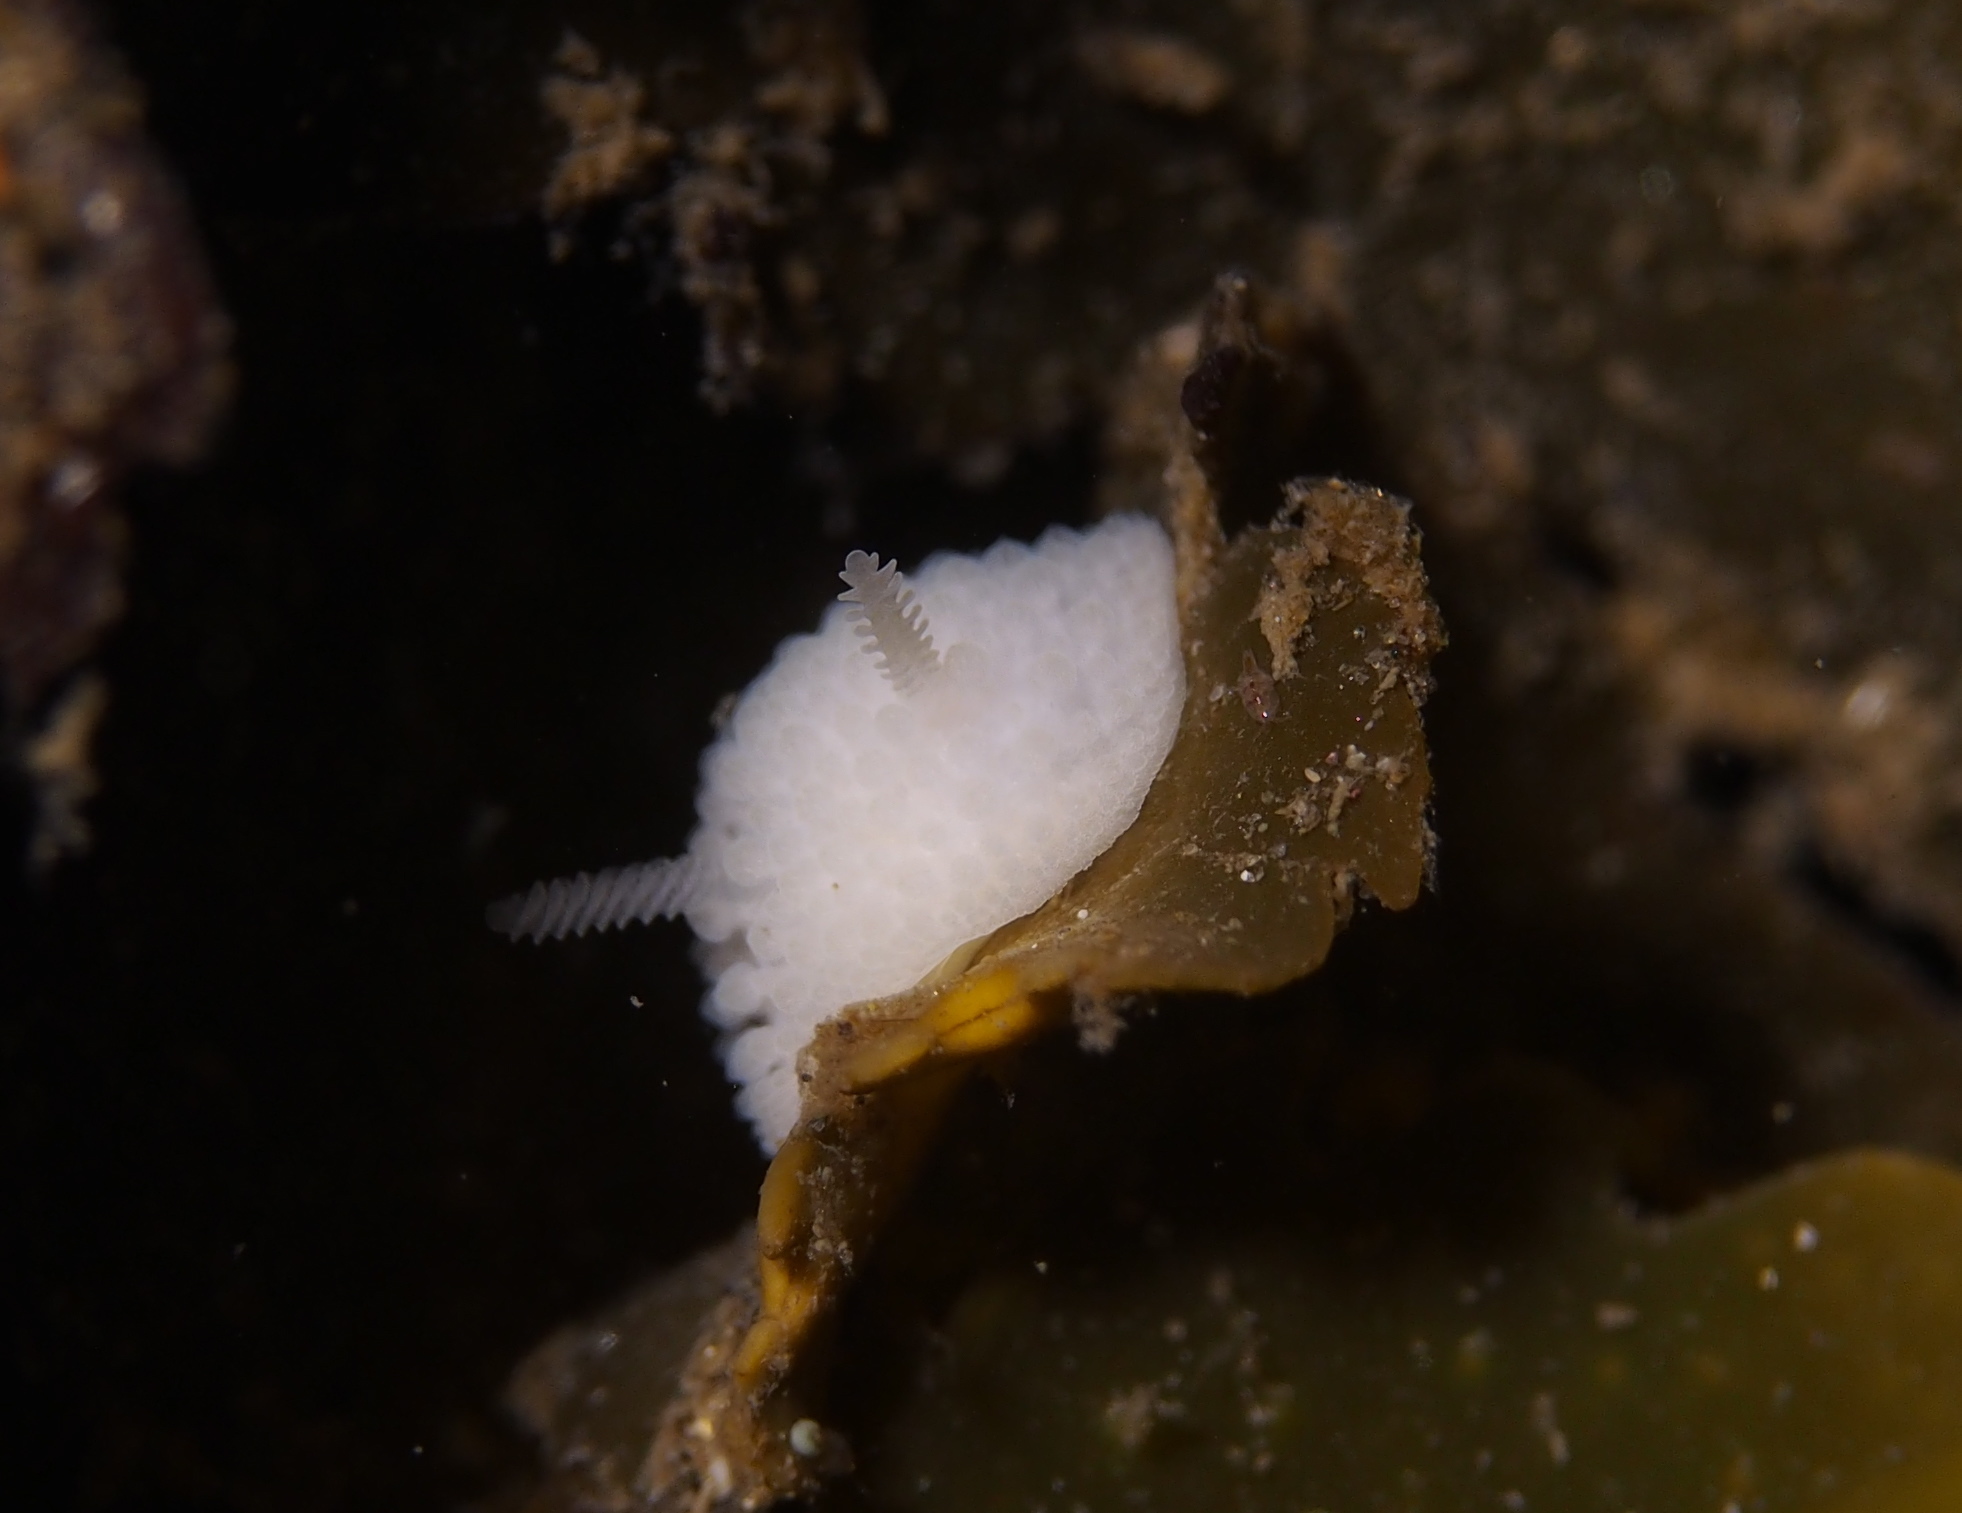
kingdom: Animalia
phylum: Mollusca
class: Gastropoda
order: Nudibranchia
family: Onchidorididae
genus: Onchidoris
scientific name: Onchidoris muricata
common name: Rough doris
